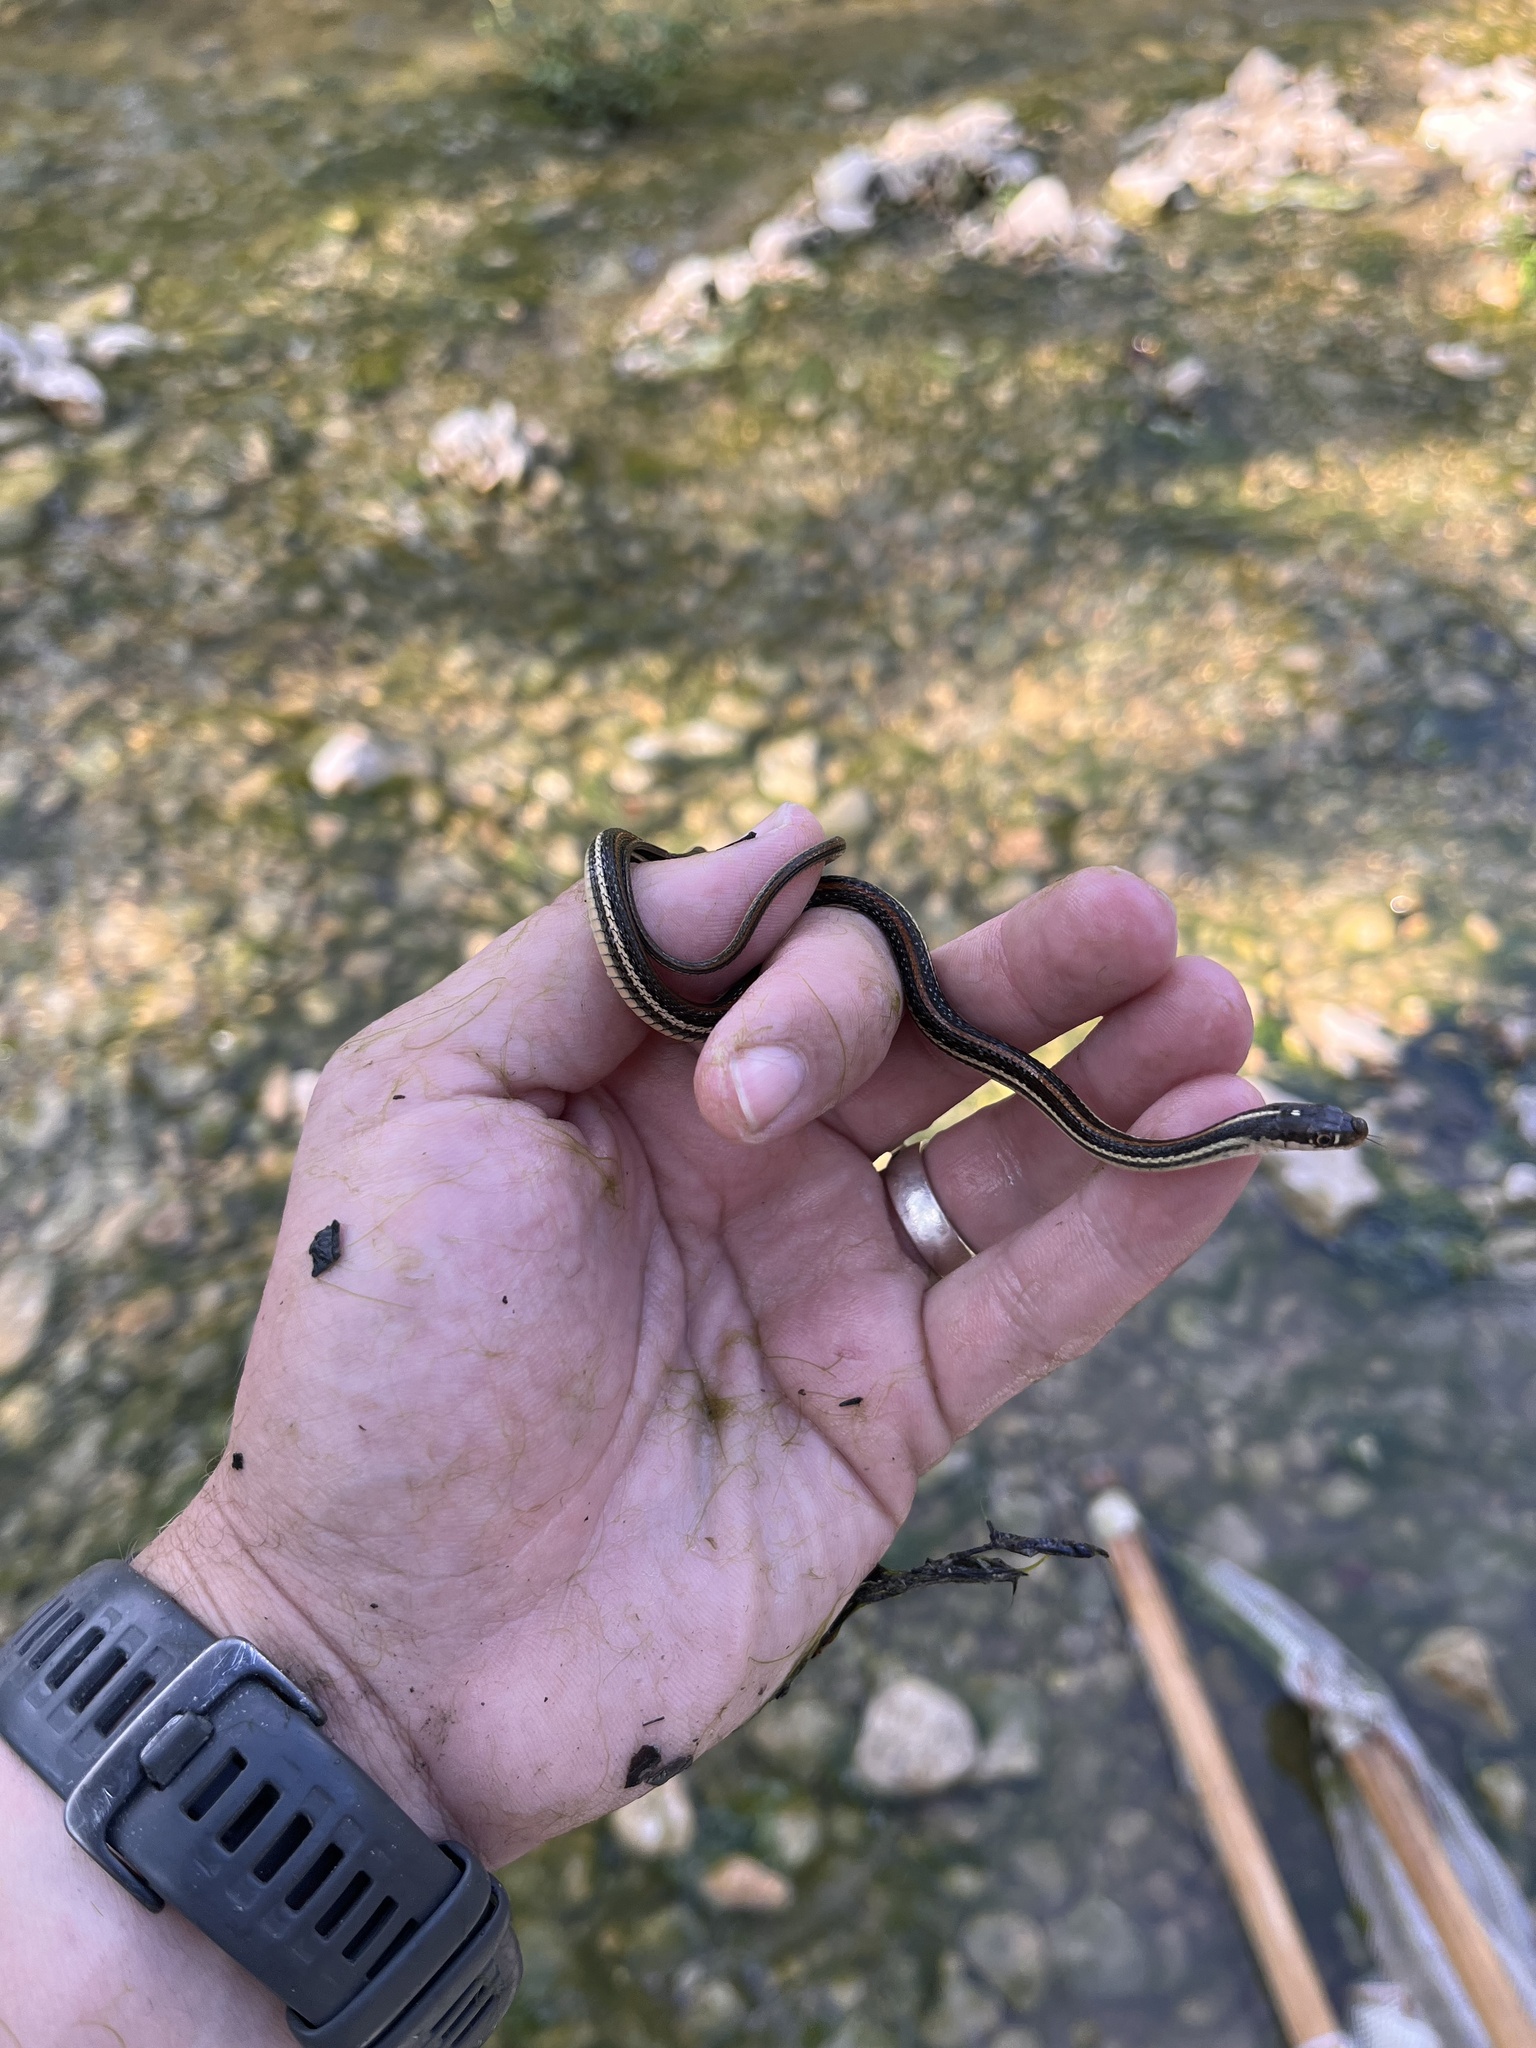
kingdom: Animalia
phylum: Chordata
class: Squamata
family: Colubridae
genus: Thamnophis
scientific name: Thamnophis proximus
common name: Western ribbon snake
